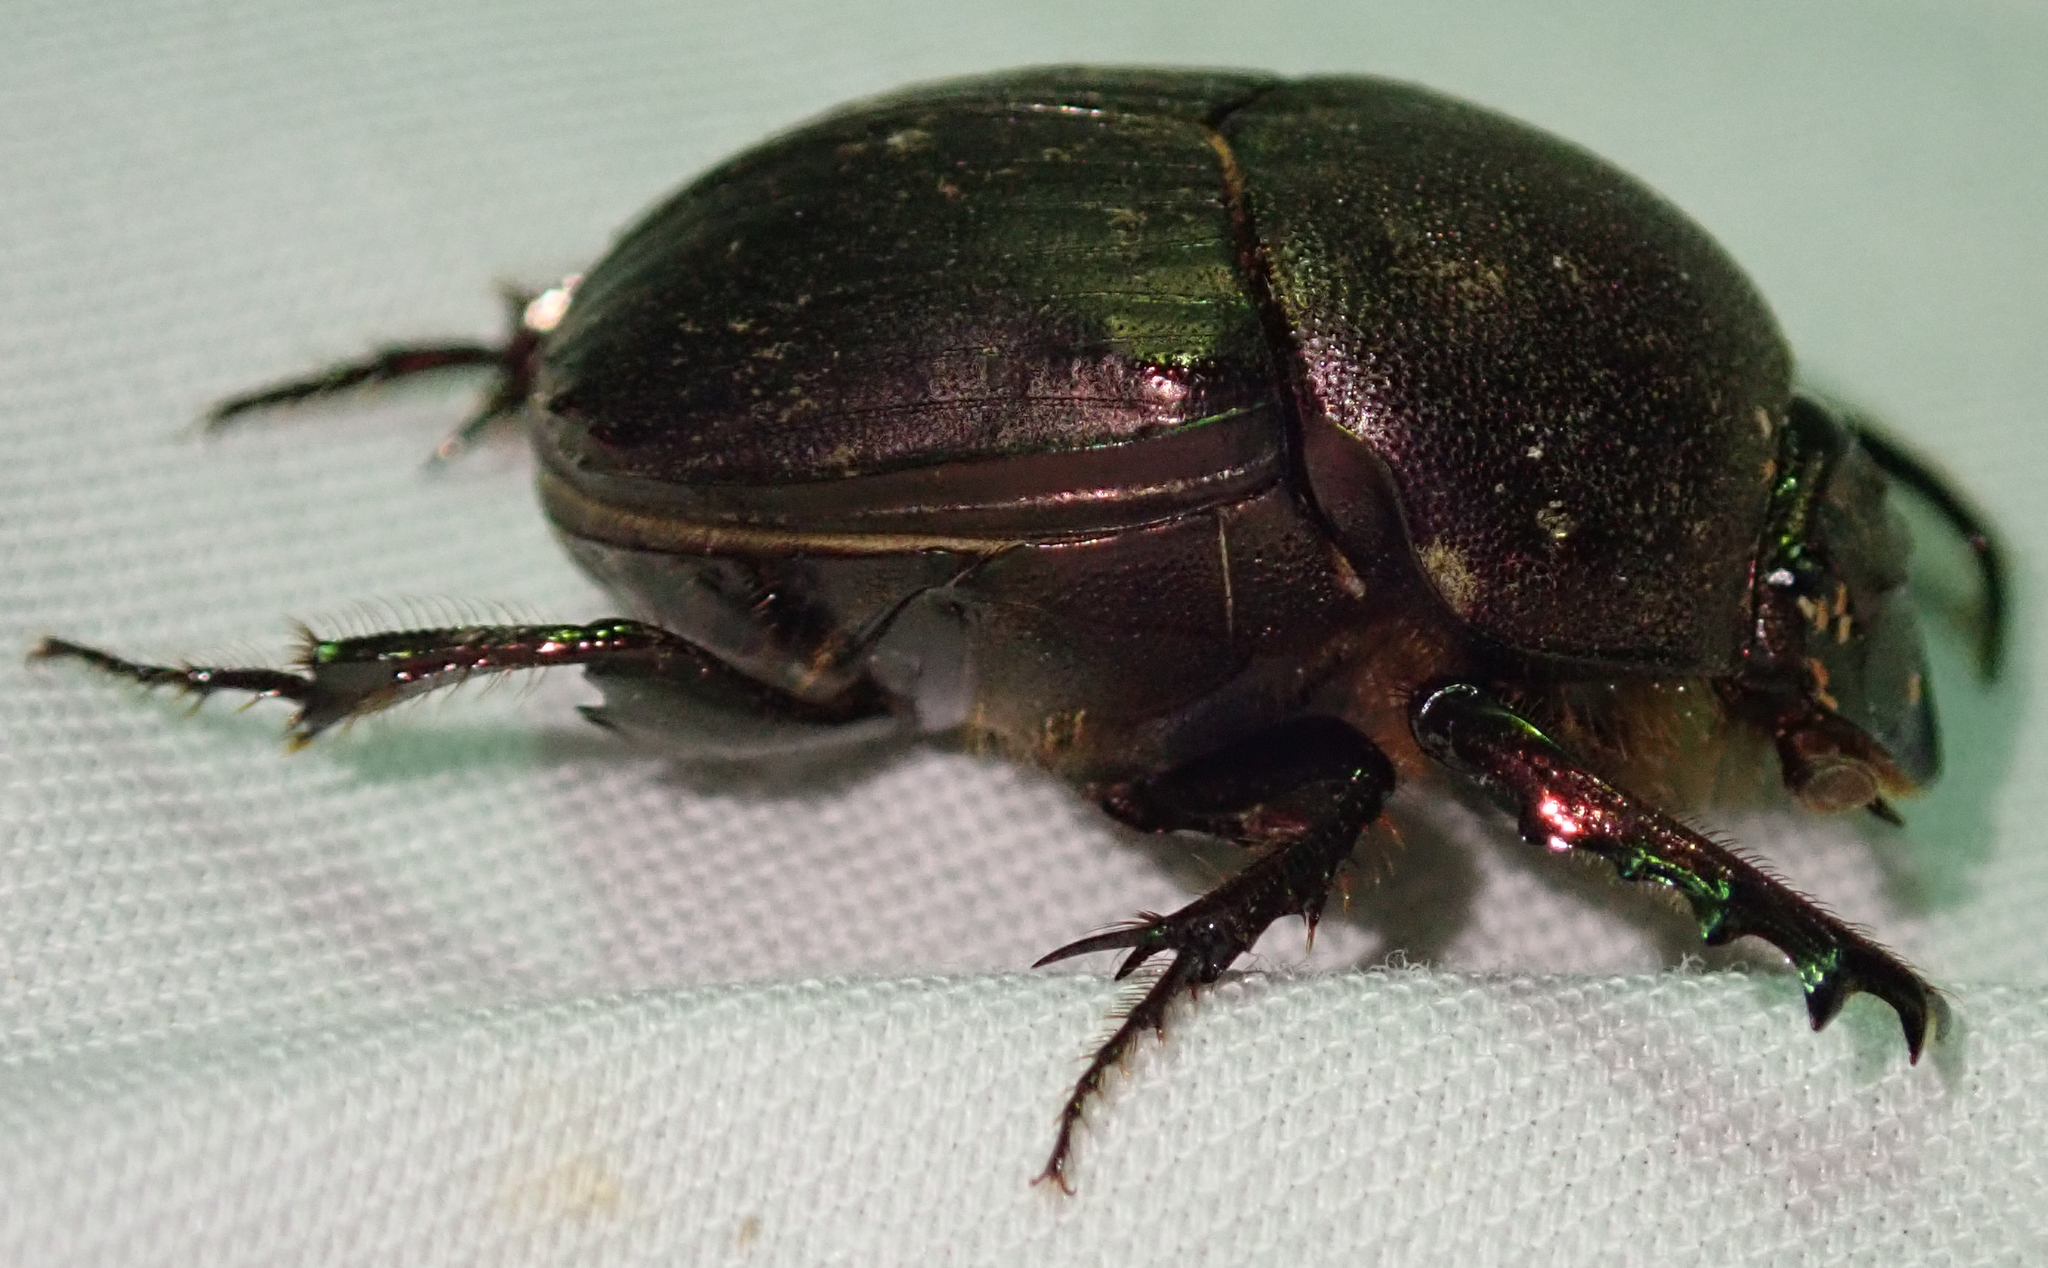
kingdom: Animalia
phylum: Arthropoda
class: Insecta
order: Coleoptera
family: Scarabaeidae
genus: Onitis
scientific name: Onitis westermanni
